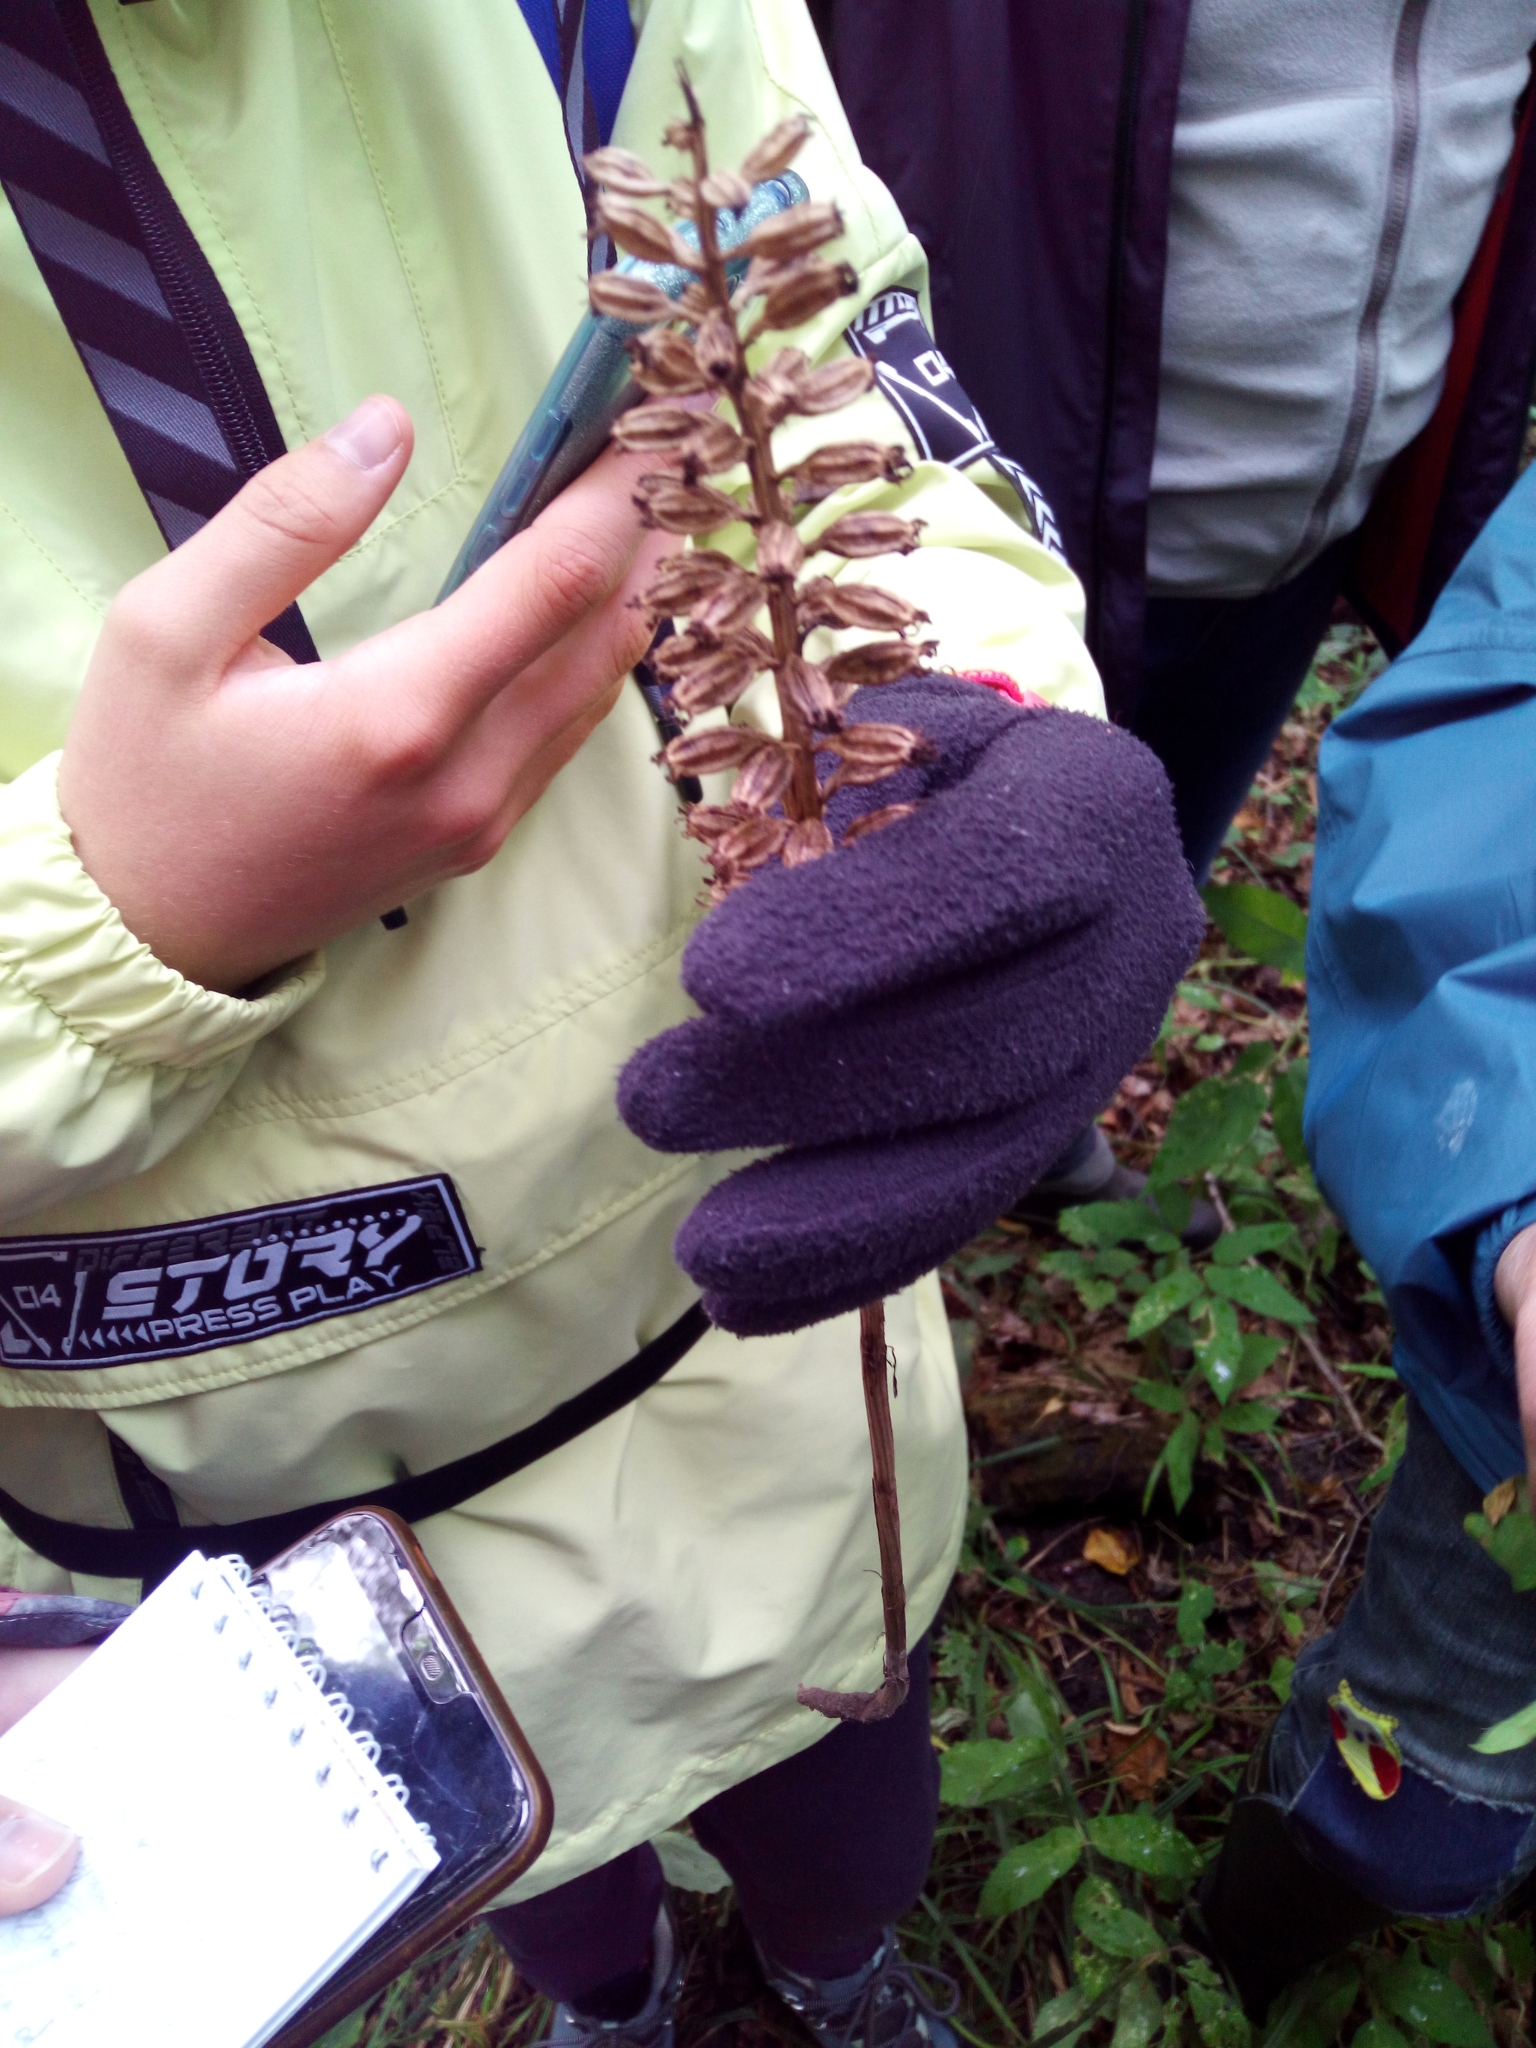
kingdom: Plantae
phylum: Tracheophyta
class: Liliopsida
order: Asparagales
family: Orchidaceae
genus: Neottia
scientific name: Neottia nidus-avis
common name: Bird's-nest orchid
